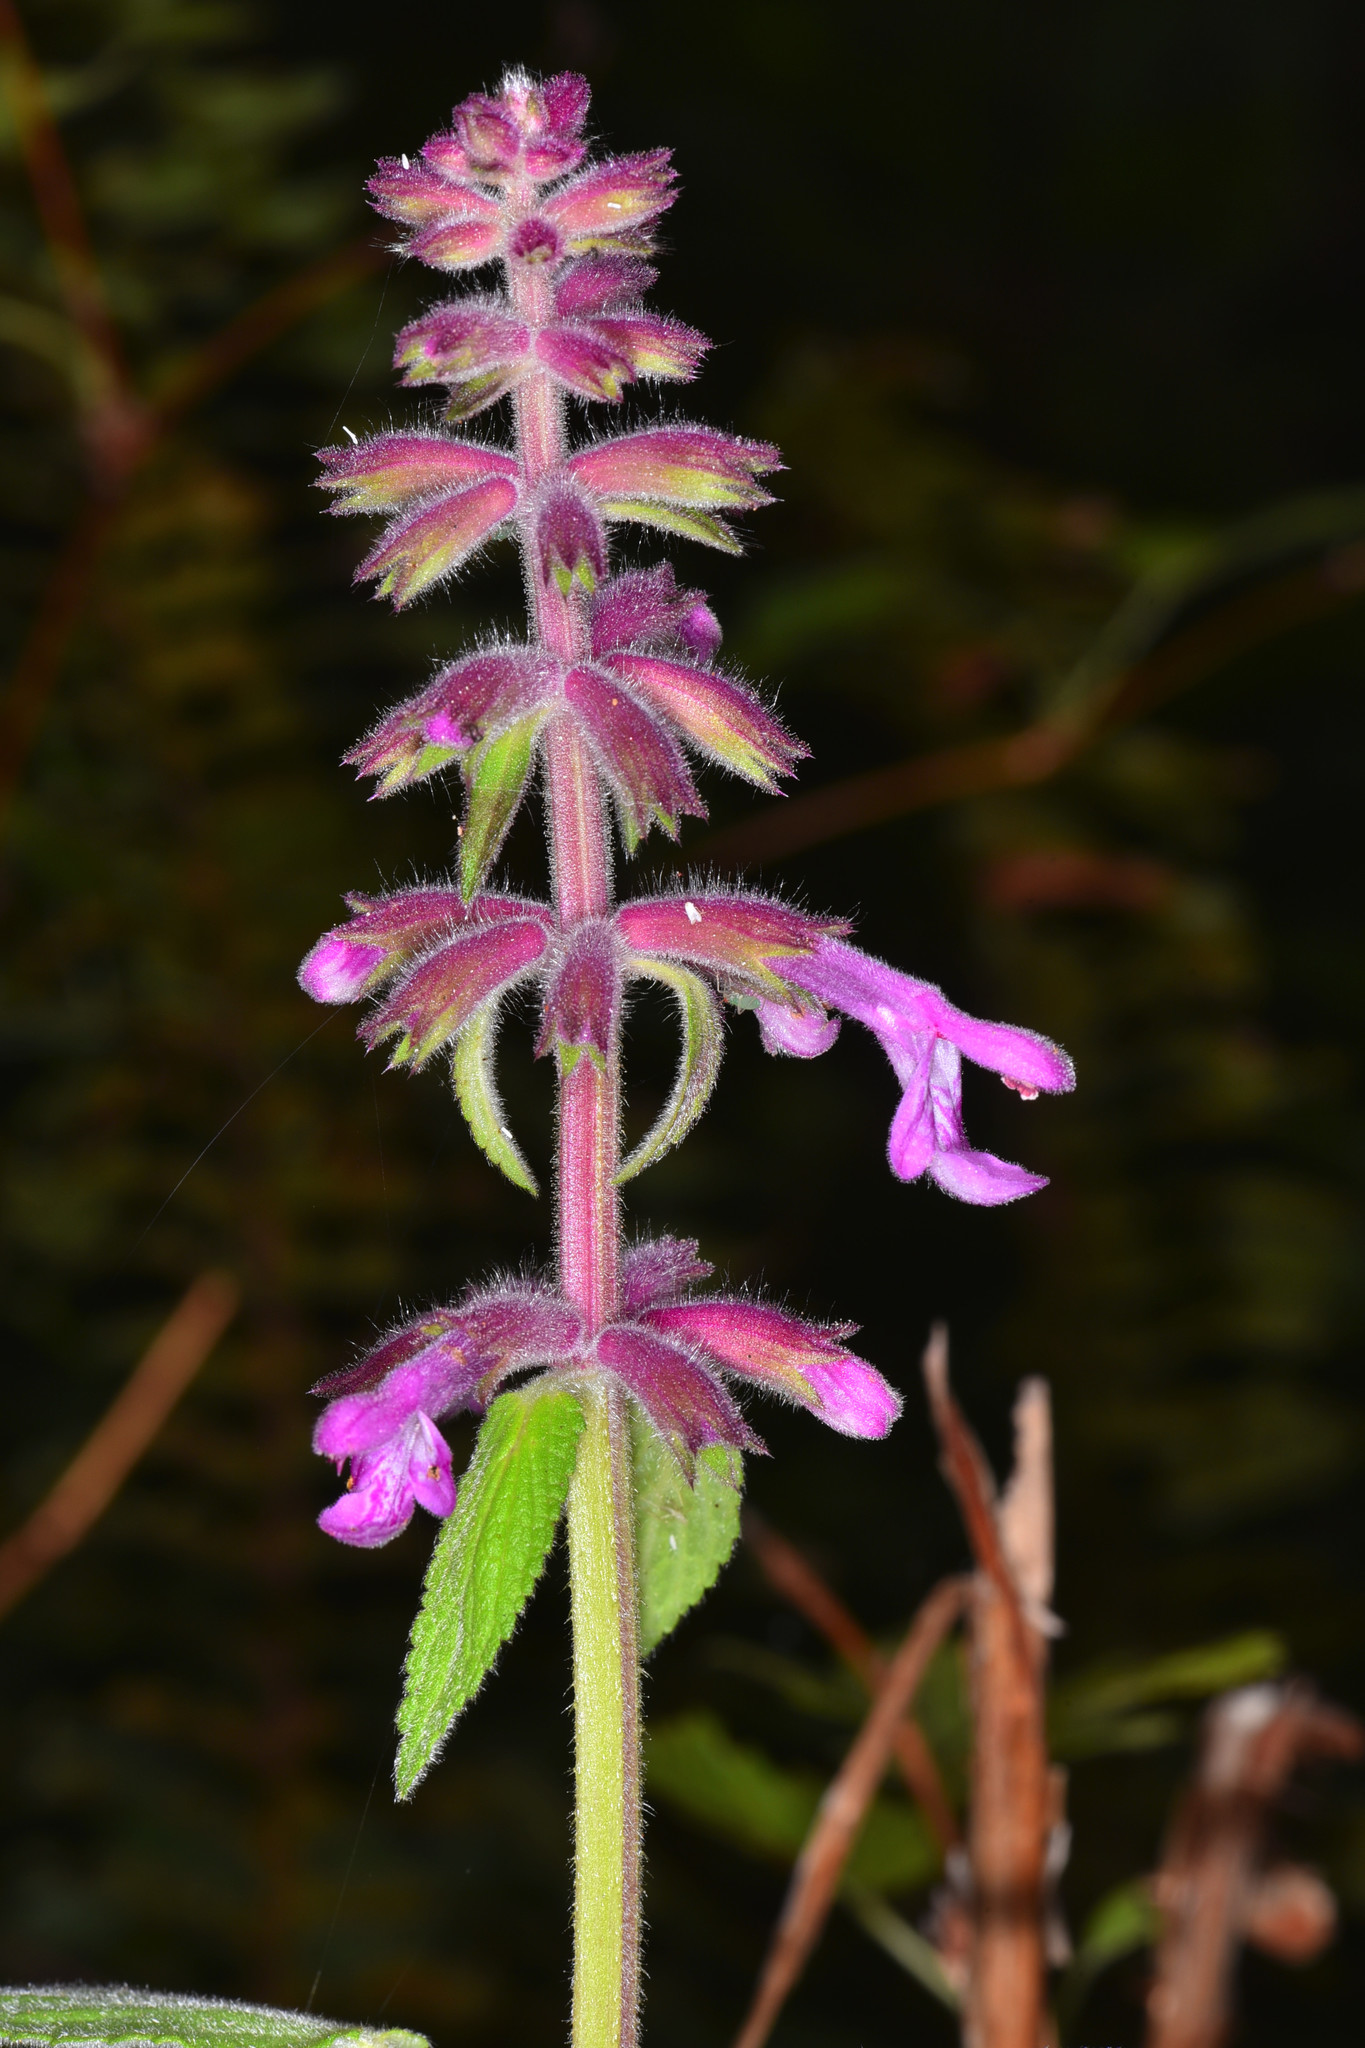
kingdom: Plantae
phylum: Tracheophyta
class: Magnoliopsida
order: Lamiales
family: Lamiaceae
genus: Stachys
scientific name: Stachys chamissonis
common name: Coastal hedge-nettle
